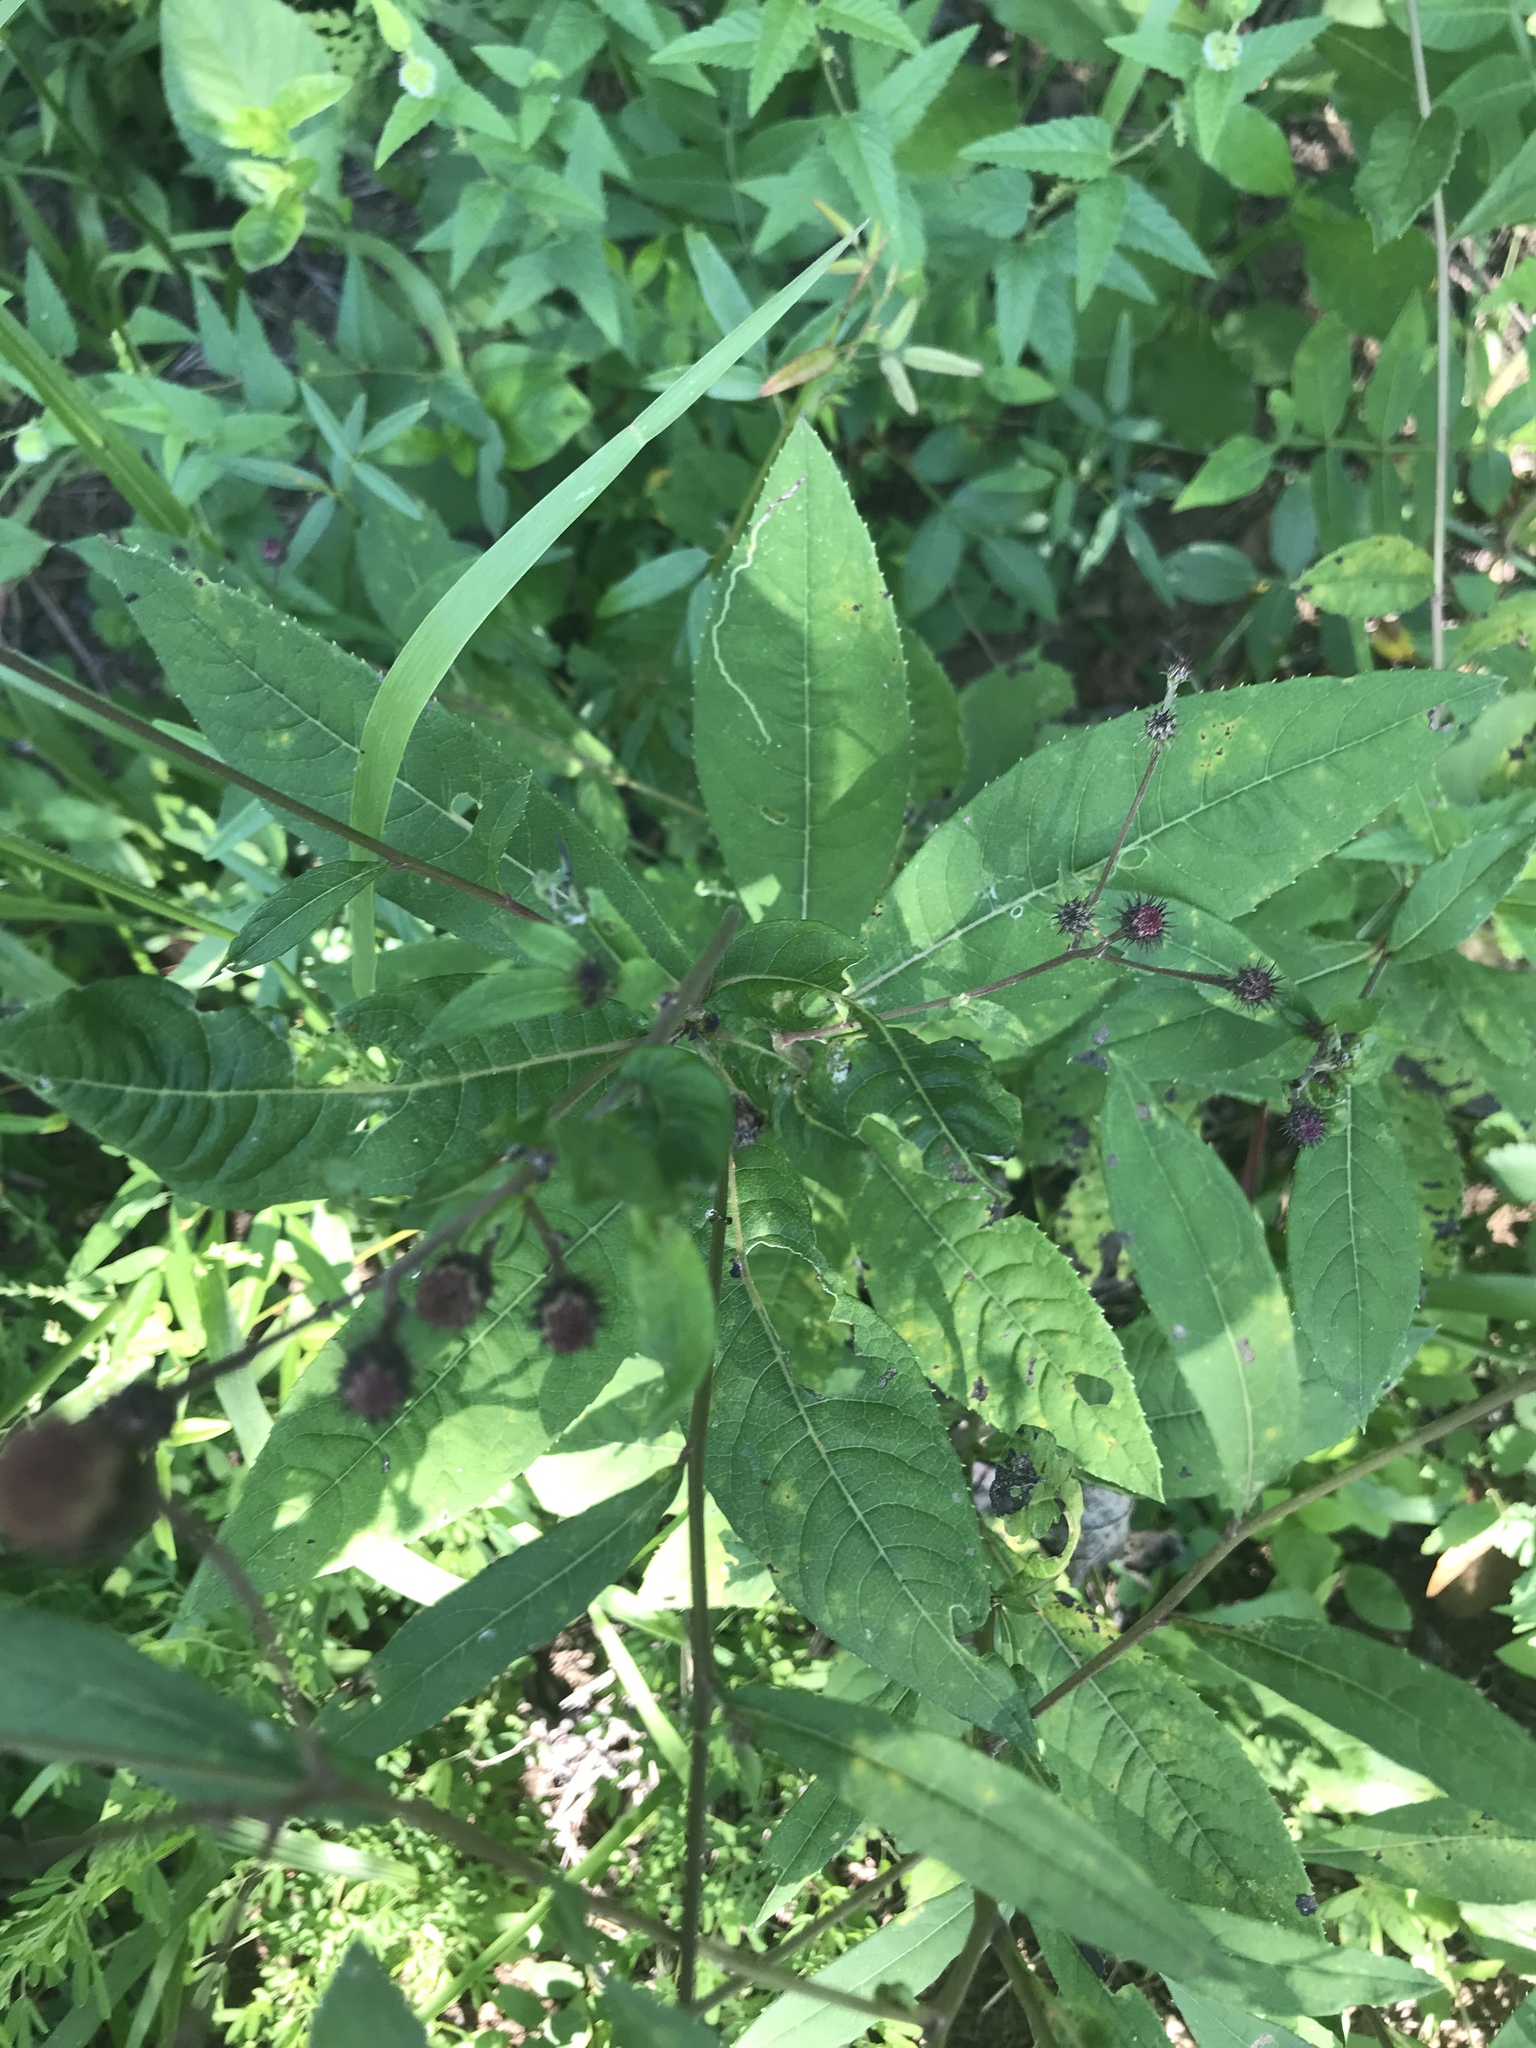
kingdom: Plantae
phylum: Tracheophyta
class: Magnoliopsida
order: Asterales
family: Asteraceae
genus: Vernonia
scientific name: Vernonia glauca
